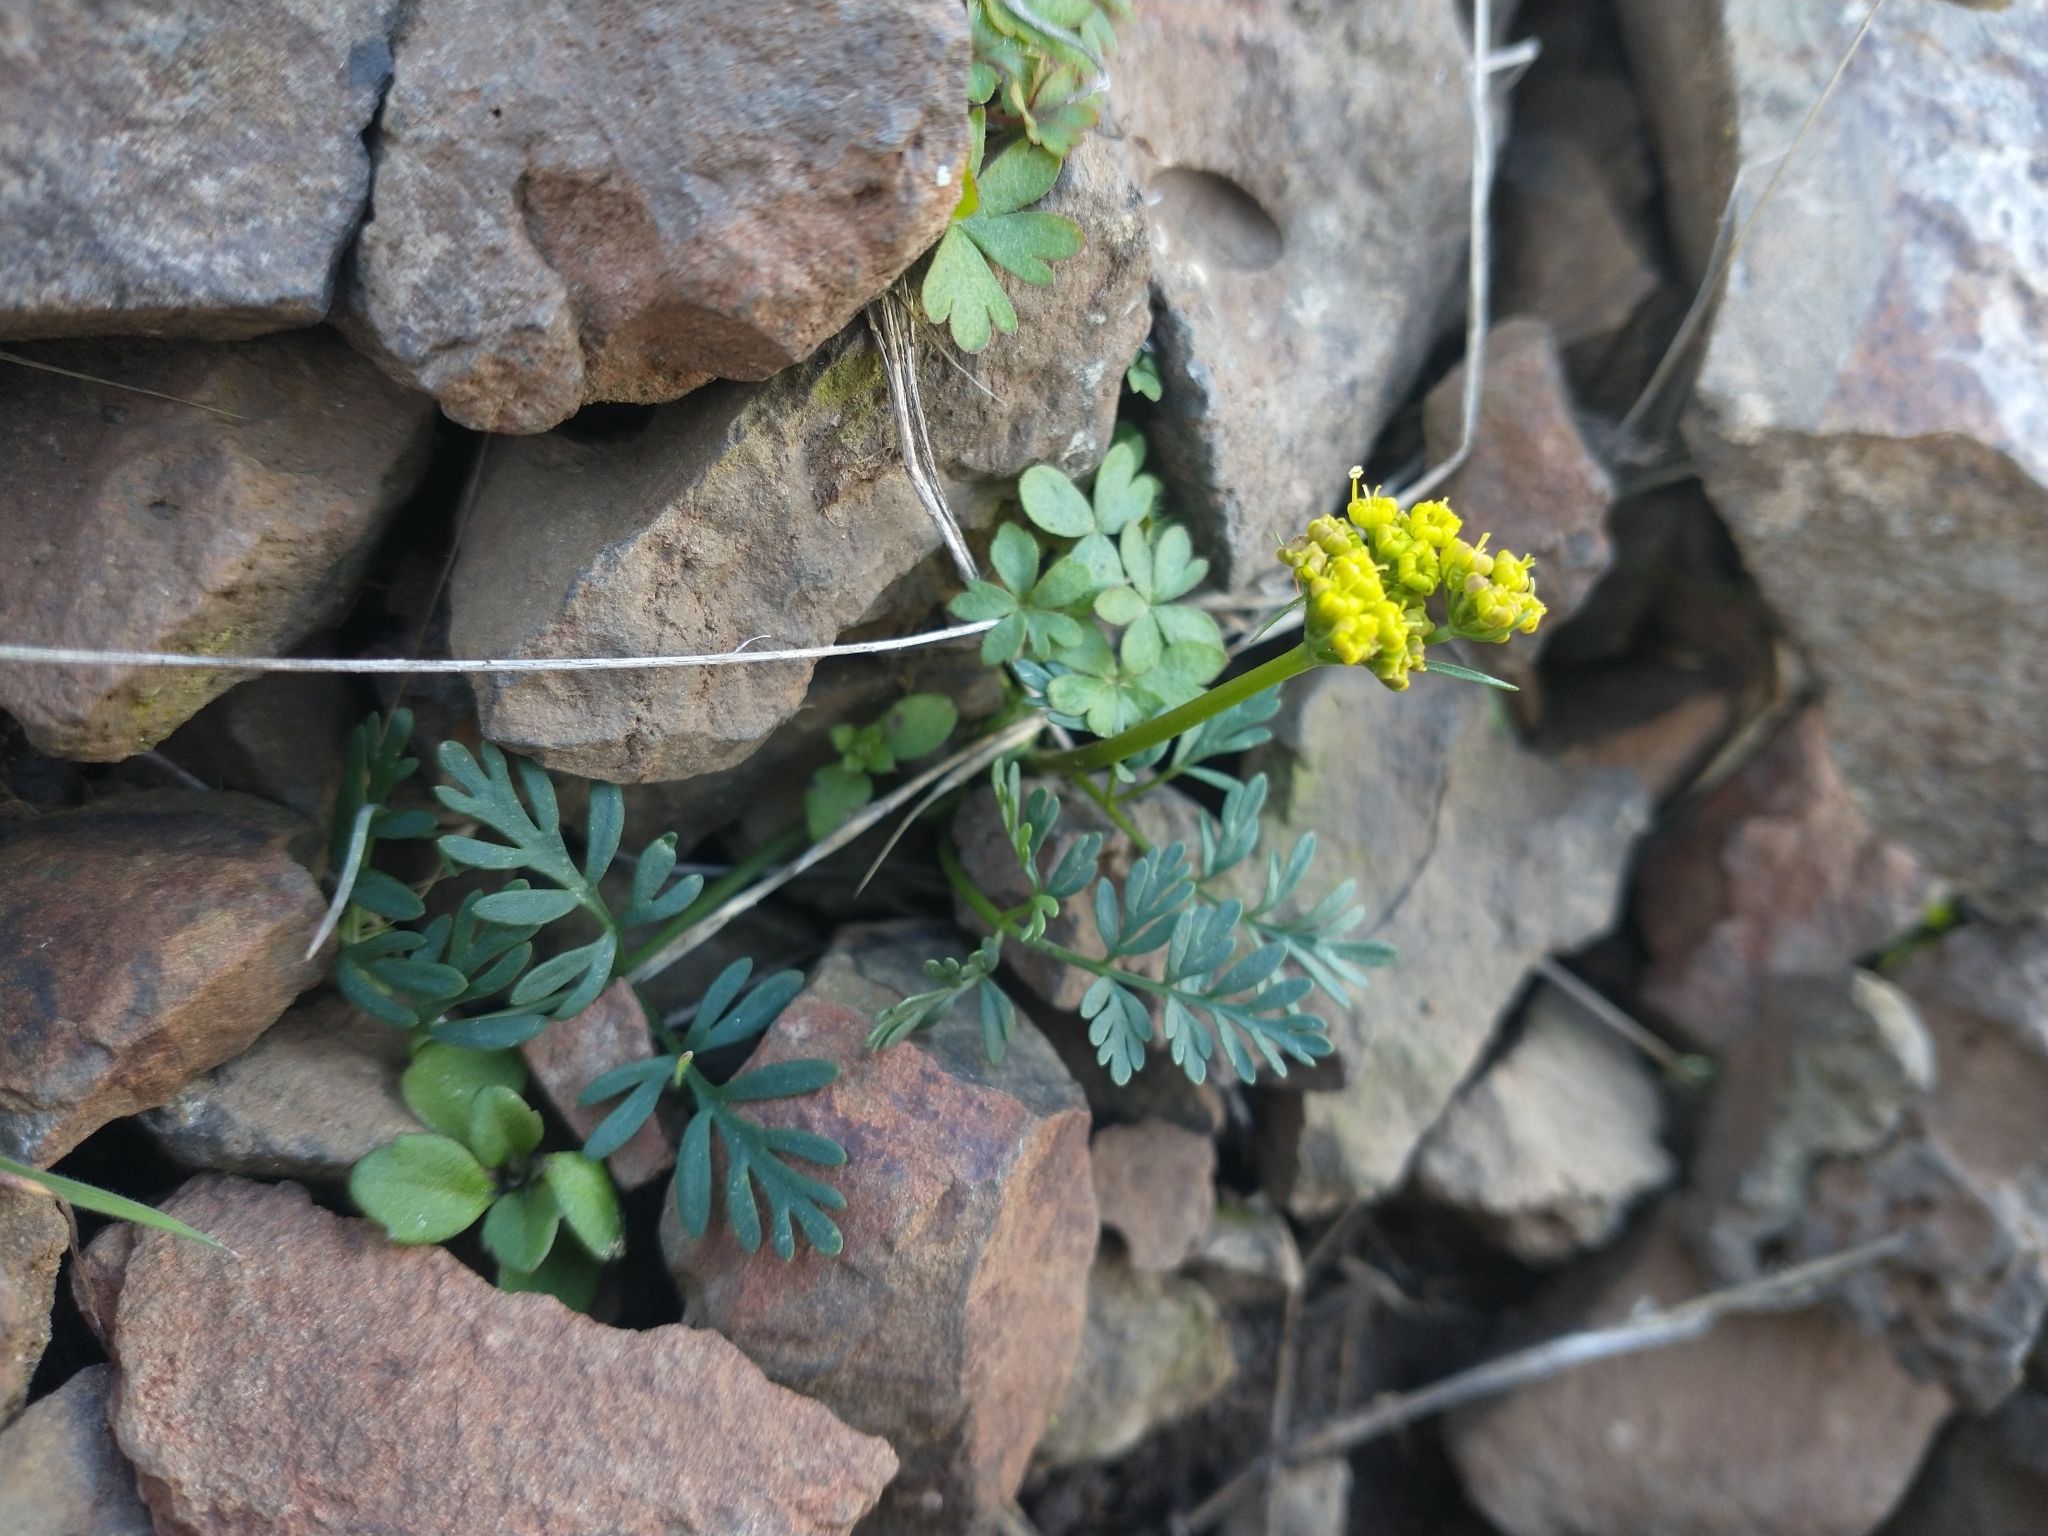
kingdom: Plantae
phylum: Tracheophyta
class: Magnoliopsida
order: Apiales
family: Apiaceae
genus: Lomatium
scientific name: Lomatium hendersonii
